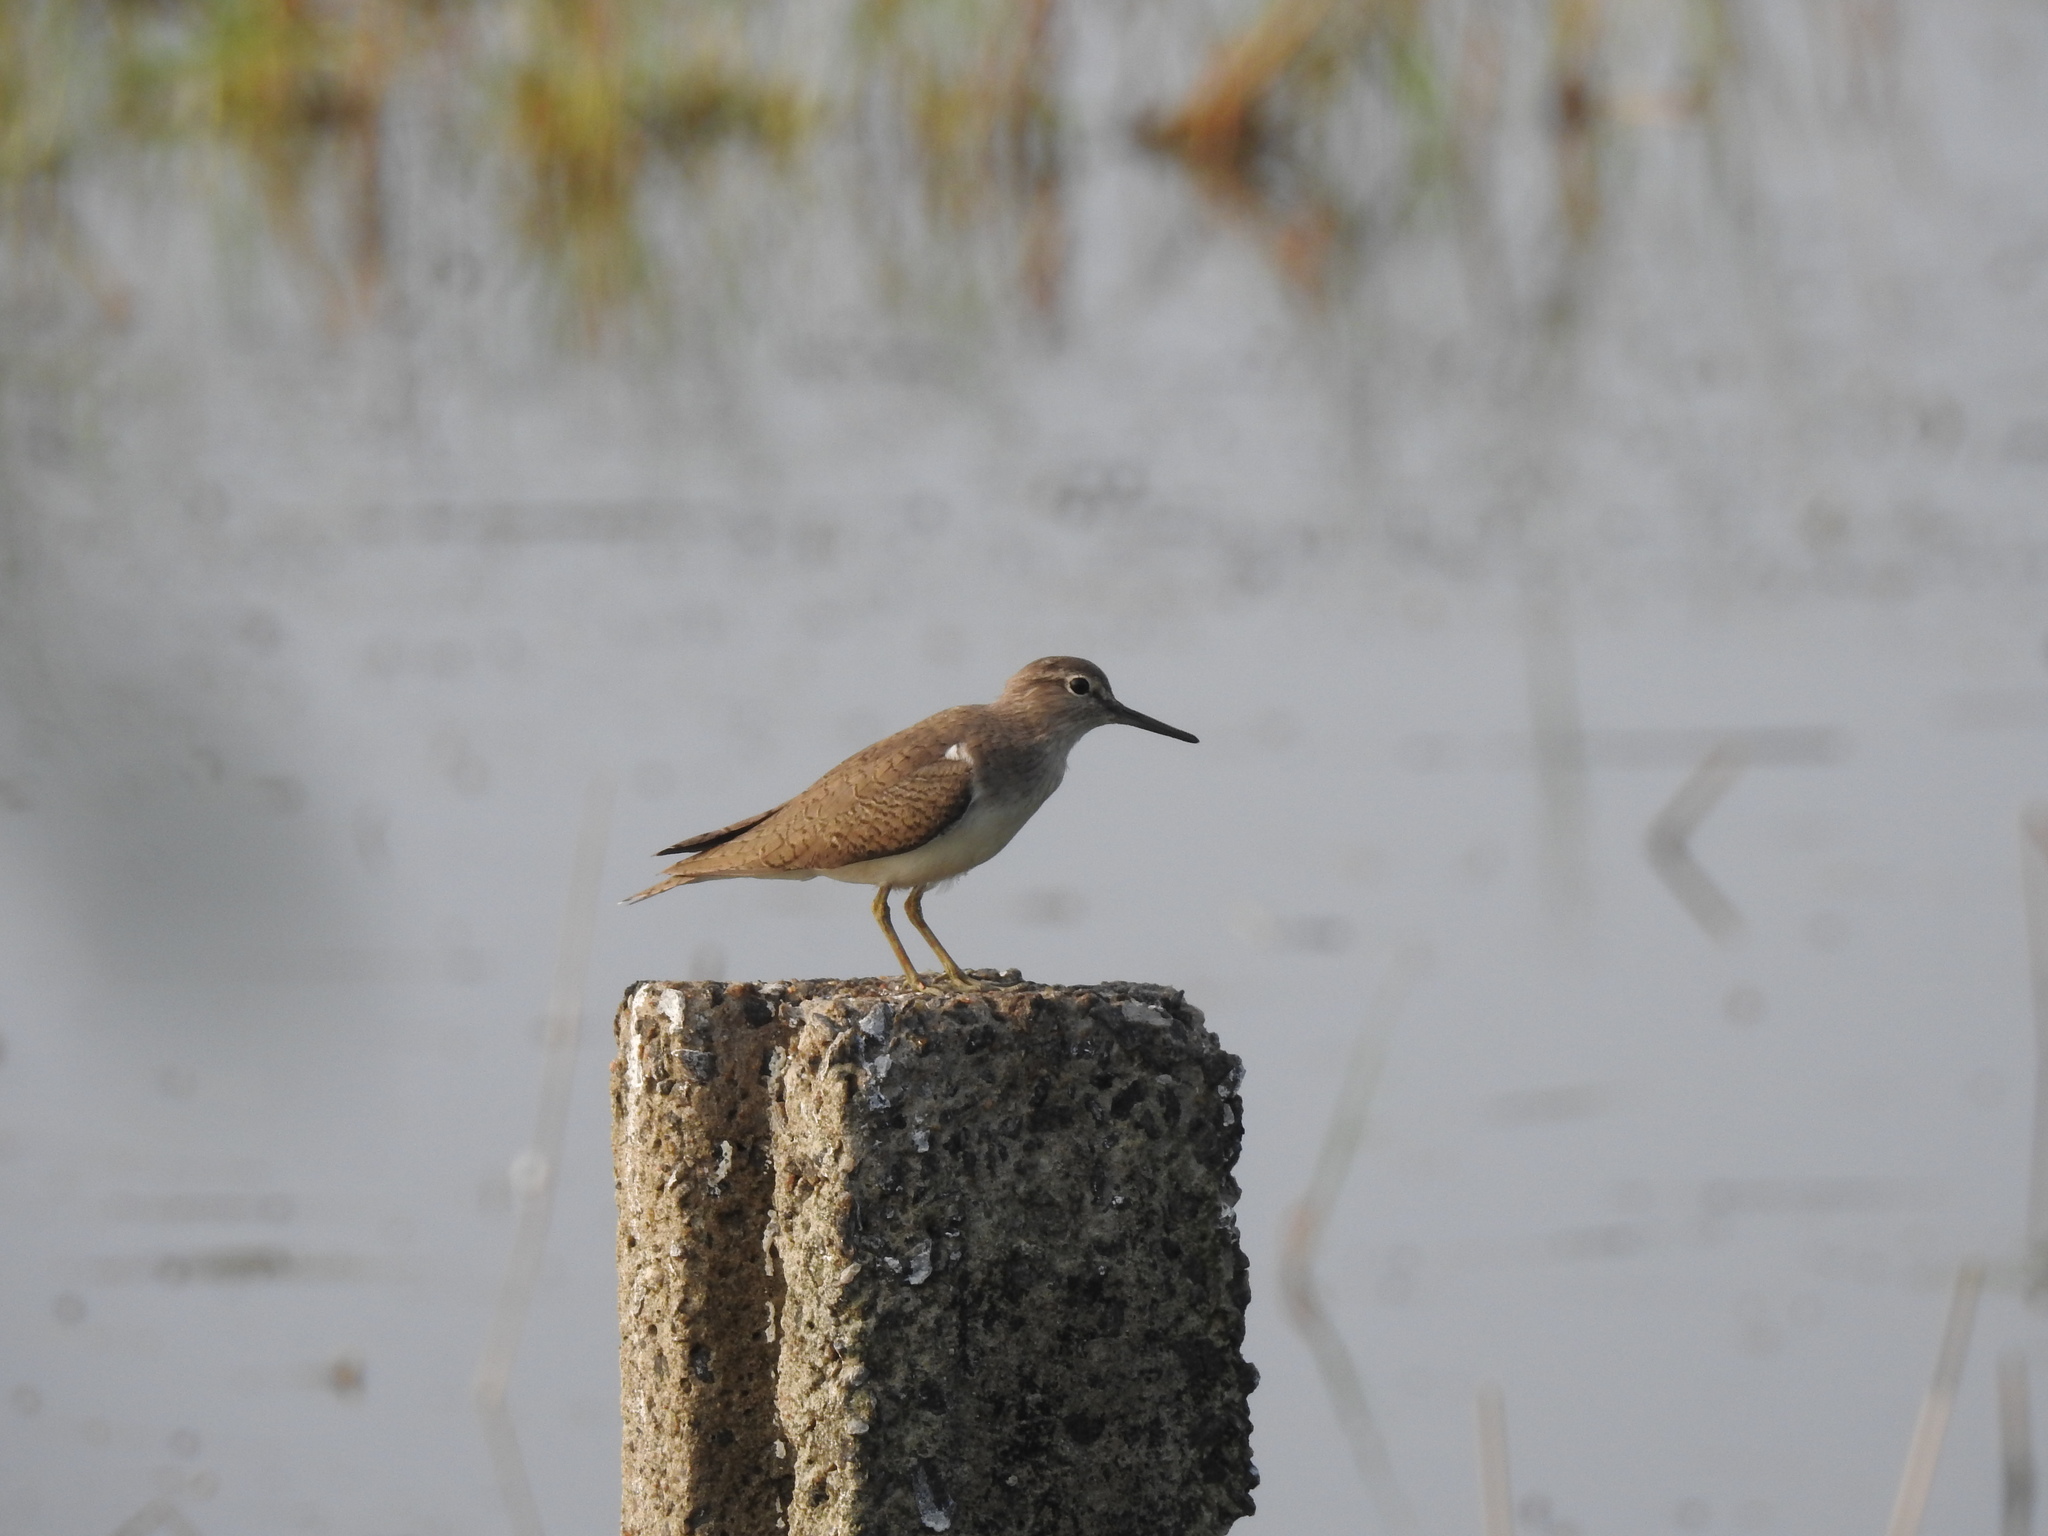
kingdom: Animalia
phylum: Chordata
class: Aves
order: Charadriiformes
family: Scolopacidae
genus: Actitis
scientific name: Actitis hypoleucos
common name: Common sandpiper
